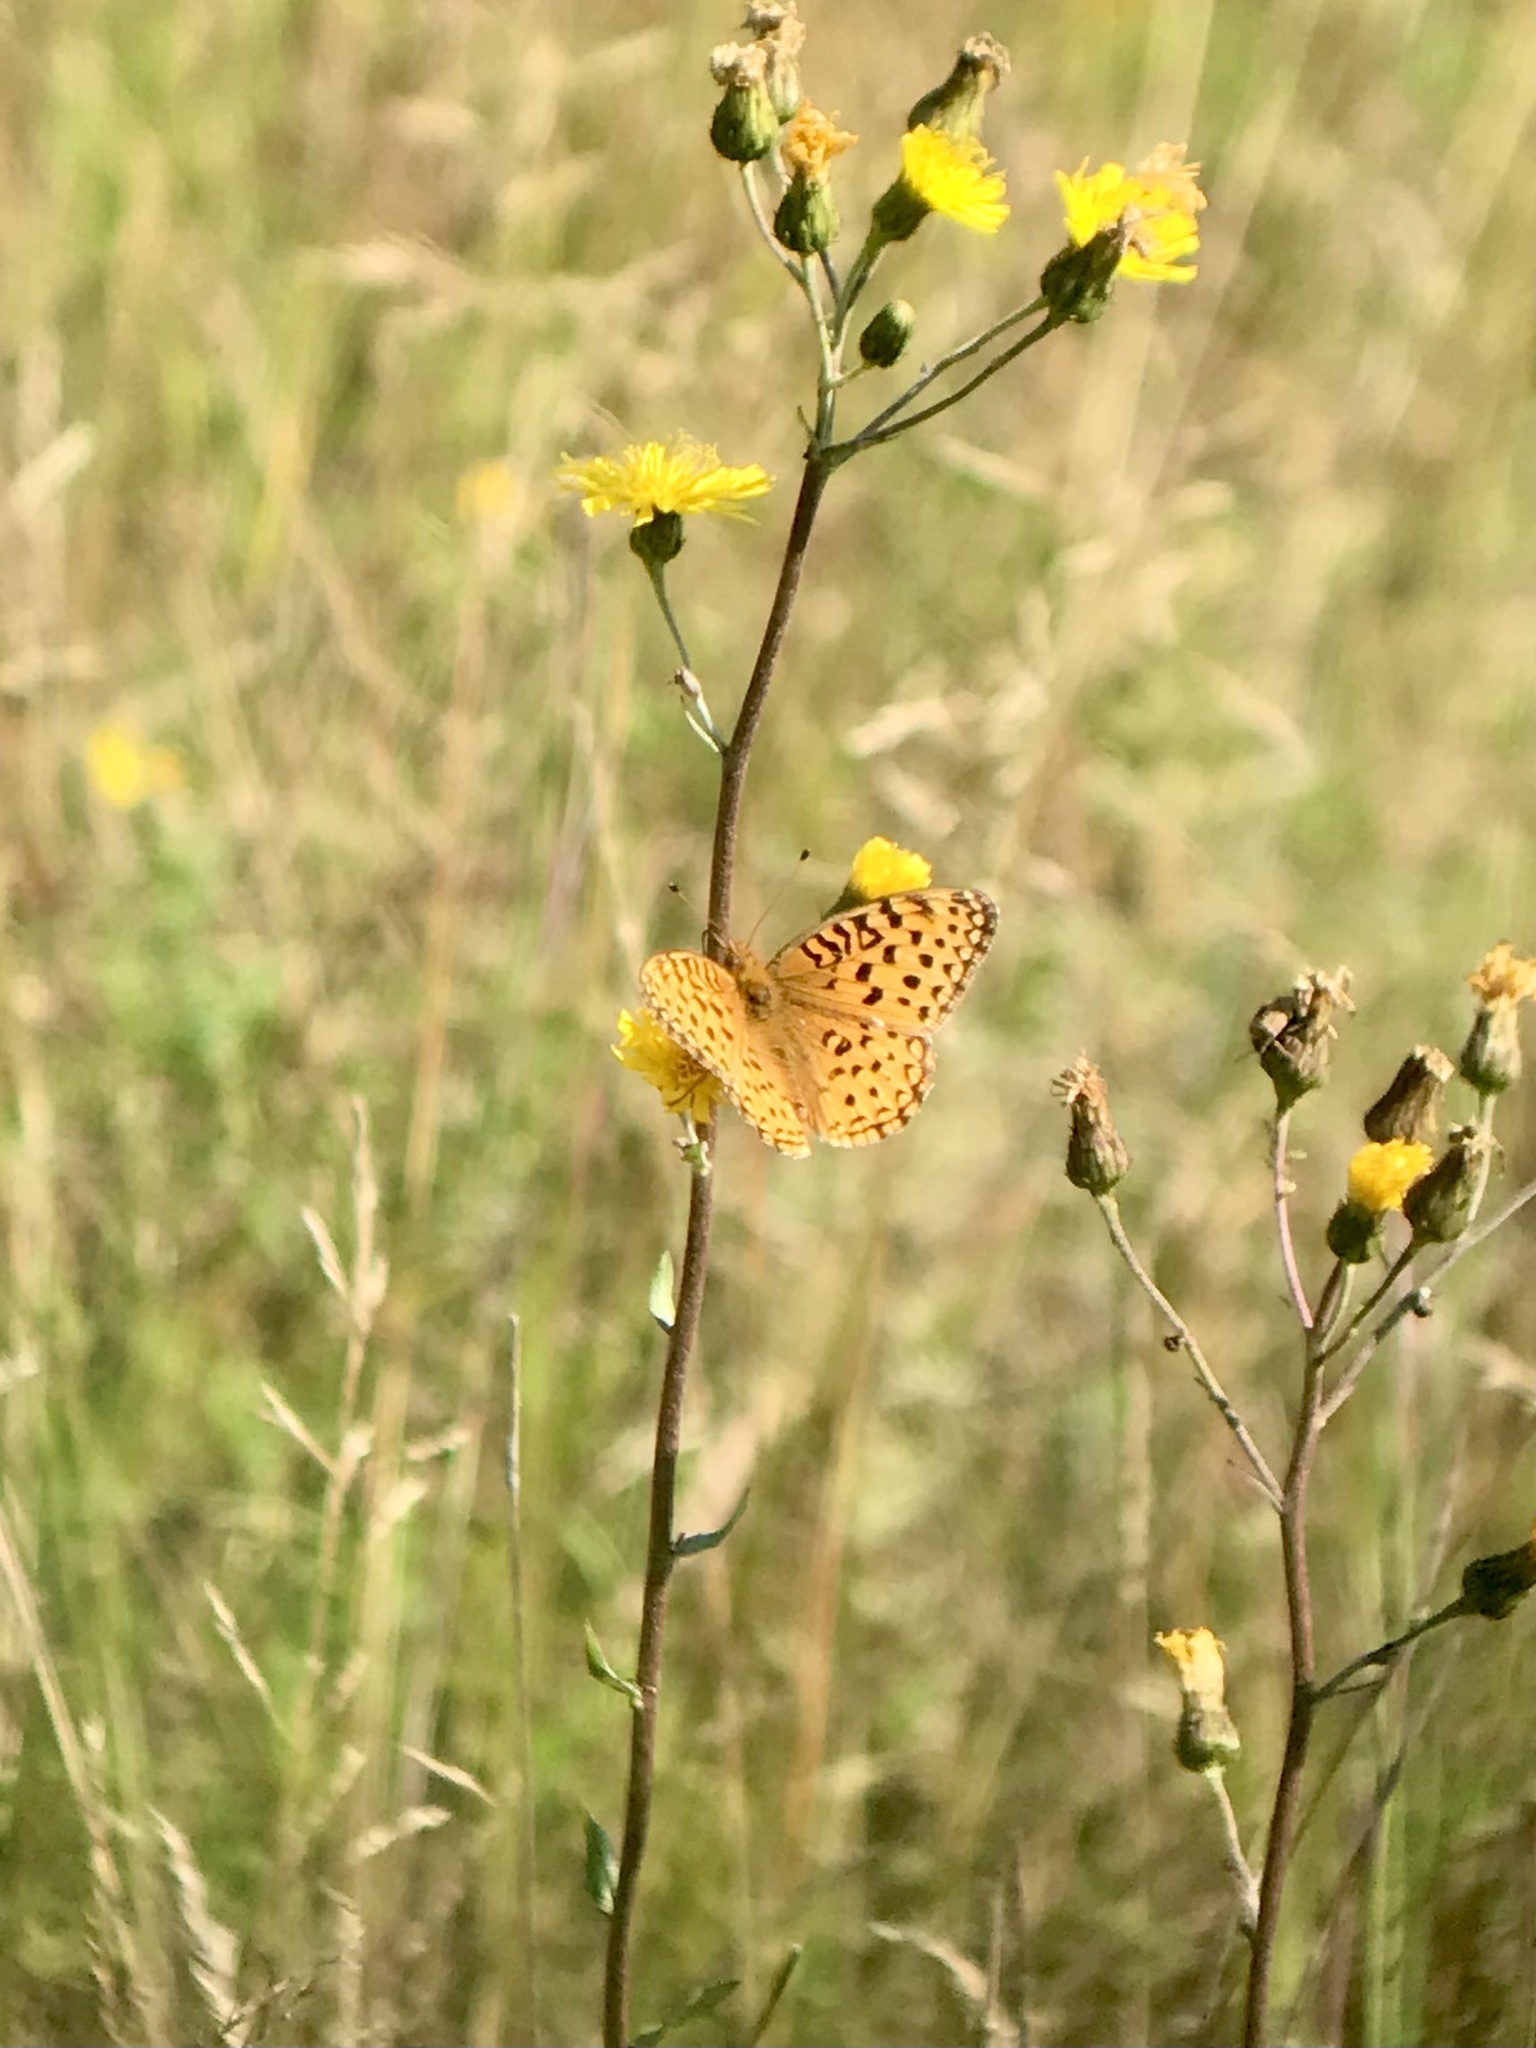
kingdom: Animalia
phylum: Arthropoda
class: Insecta
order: Lepidoptera
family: Nymphalidae
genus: Speyeria
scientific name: Speyeria aphrodite
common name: Aphrodite friitllary
